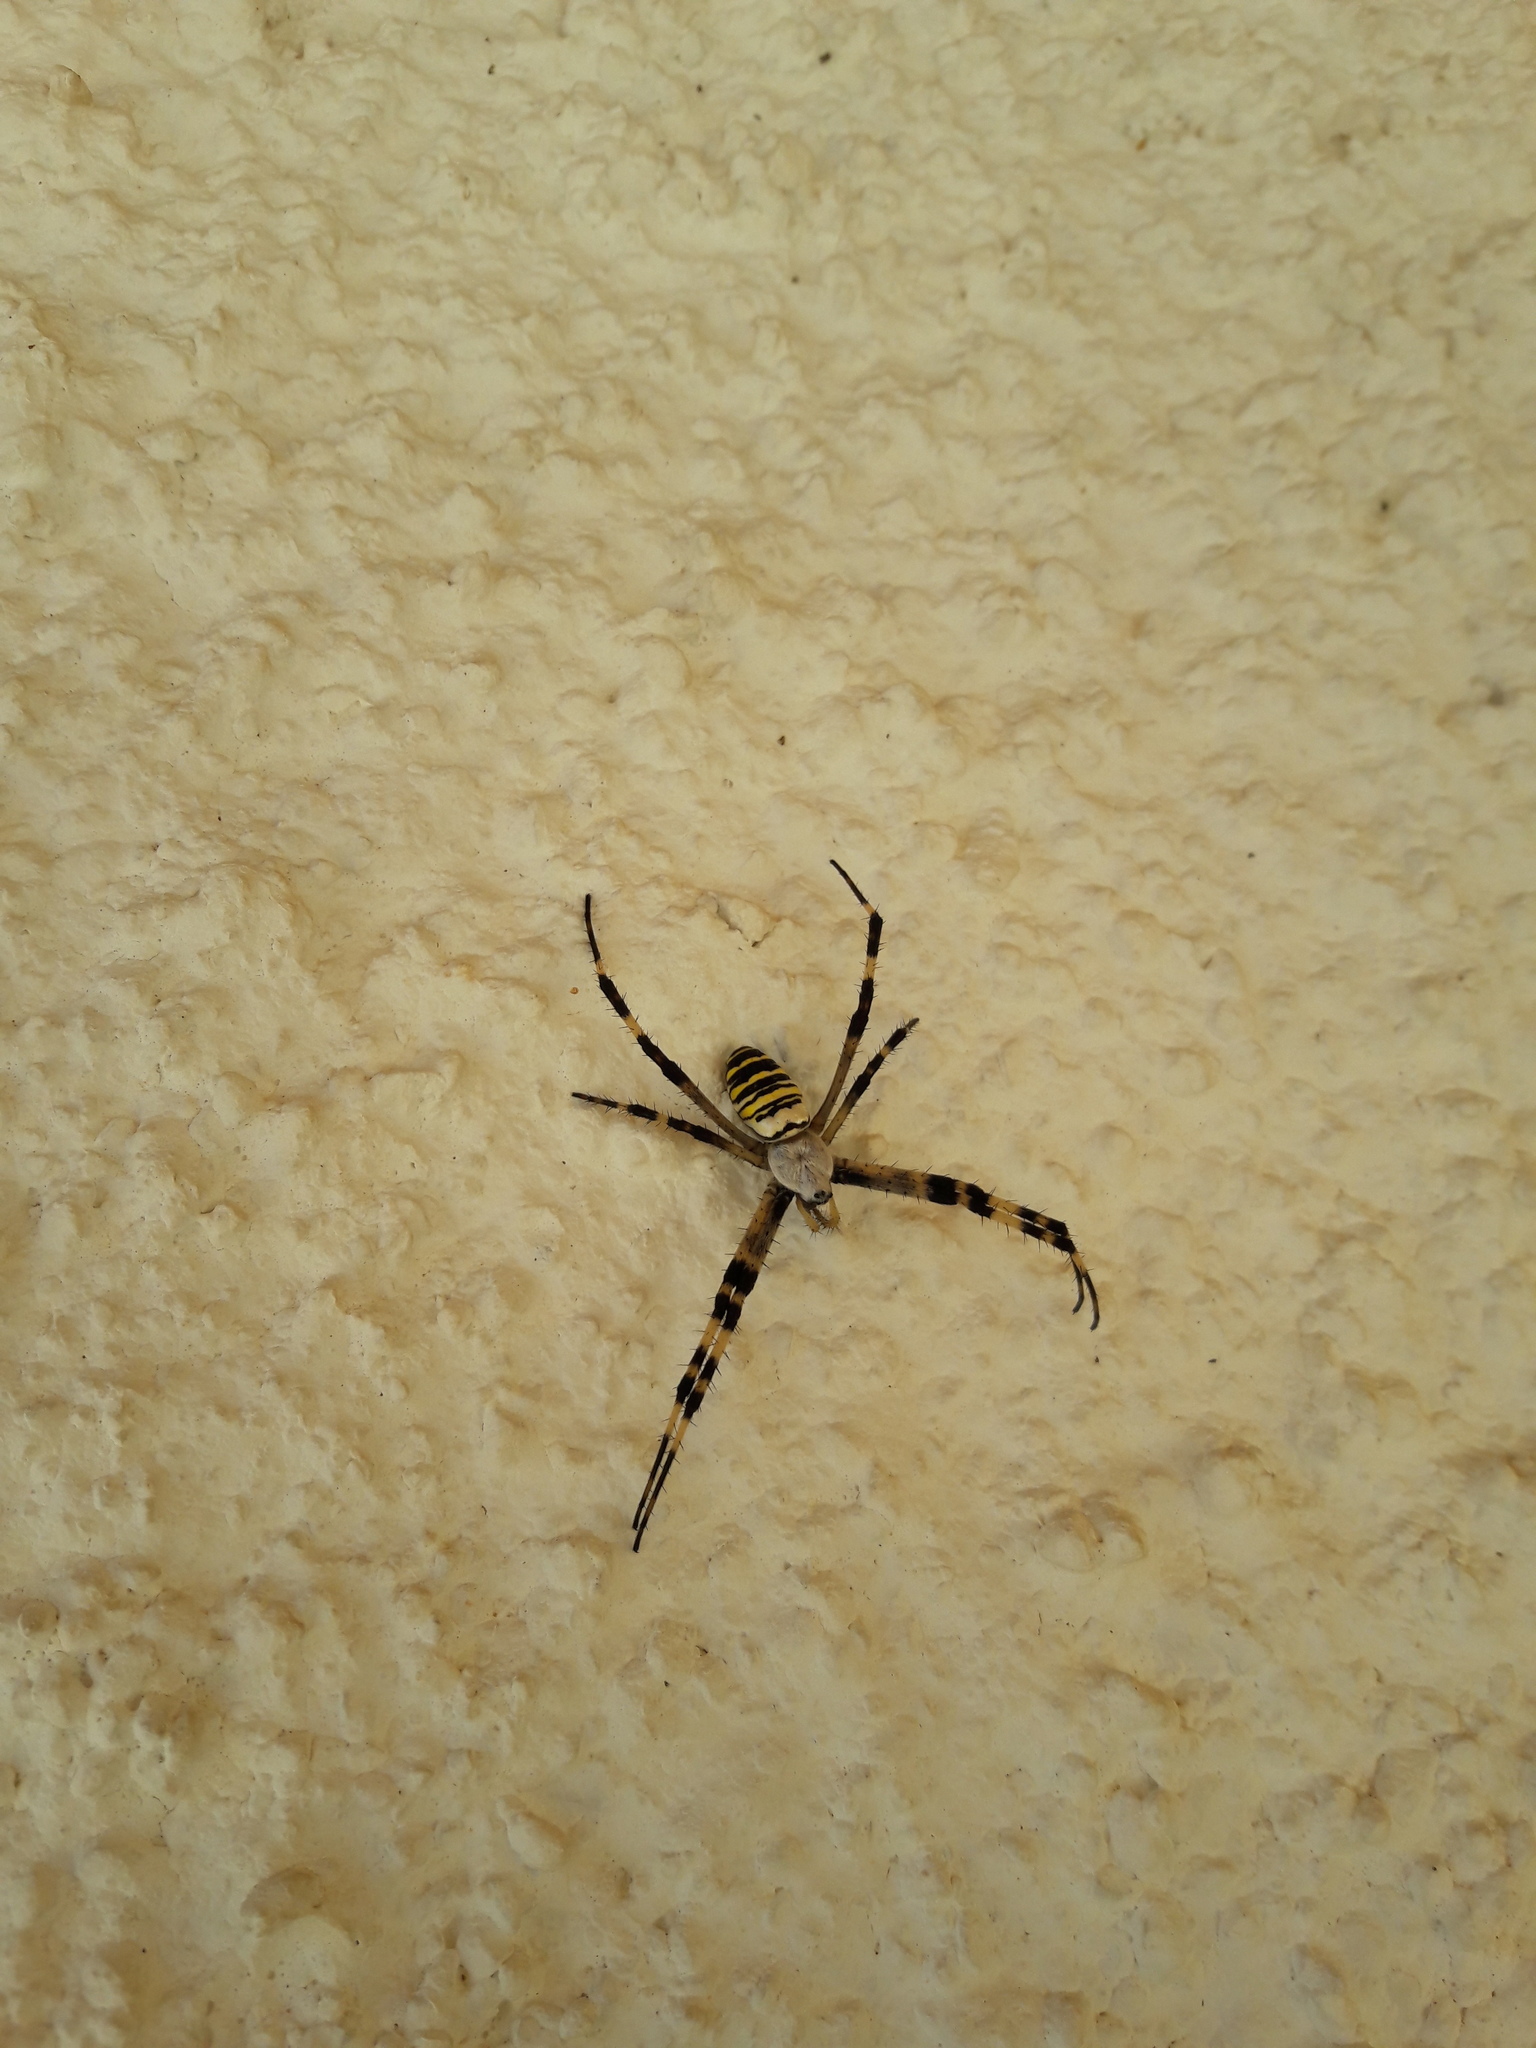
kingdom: Animalia
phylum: Arthropoda
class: Arachnida
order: Araneae
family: Araneidae
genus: Argiope
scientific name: Argiope bruennichi
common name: Wasp spider
